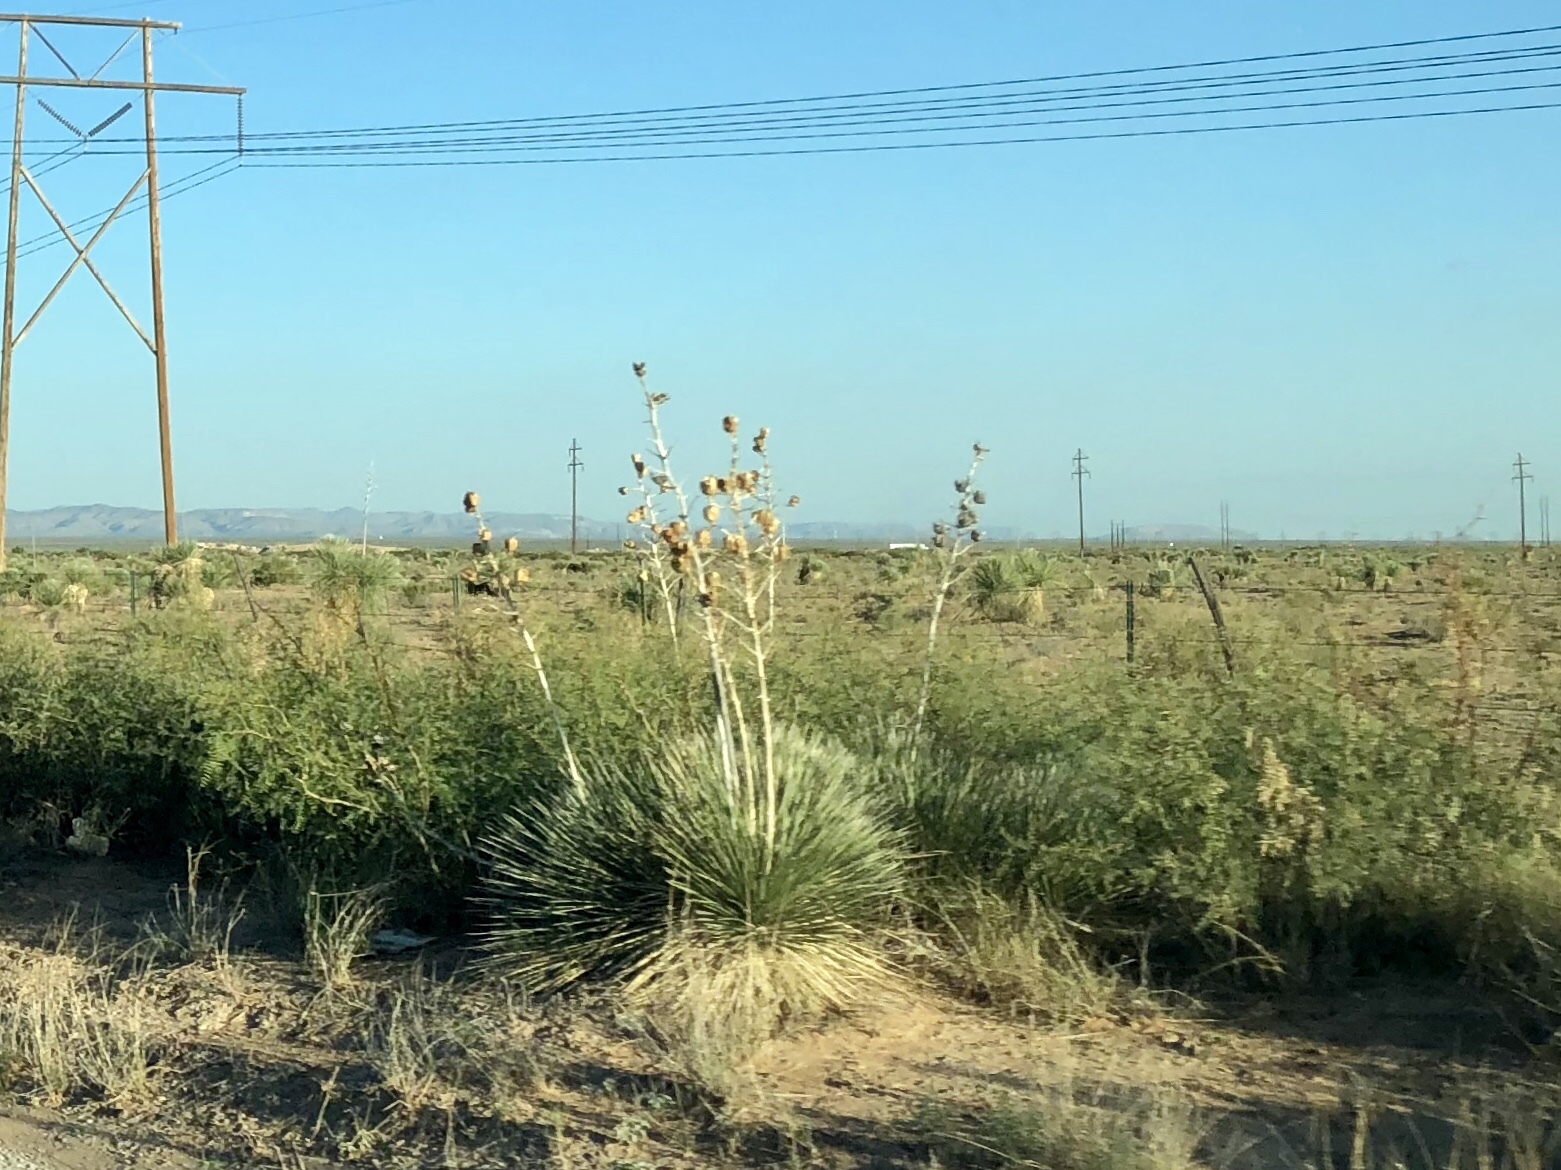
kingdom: Plantae
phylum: Tracheophyta
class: Liliopsida
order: Asparagales
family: Asparagaceae
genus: Yucca
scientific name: Yucca elata
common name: Palmella
